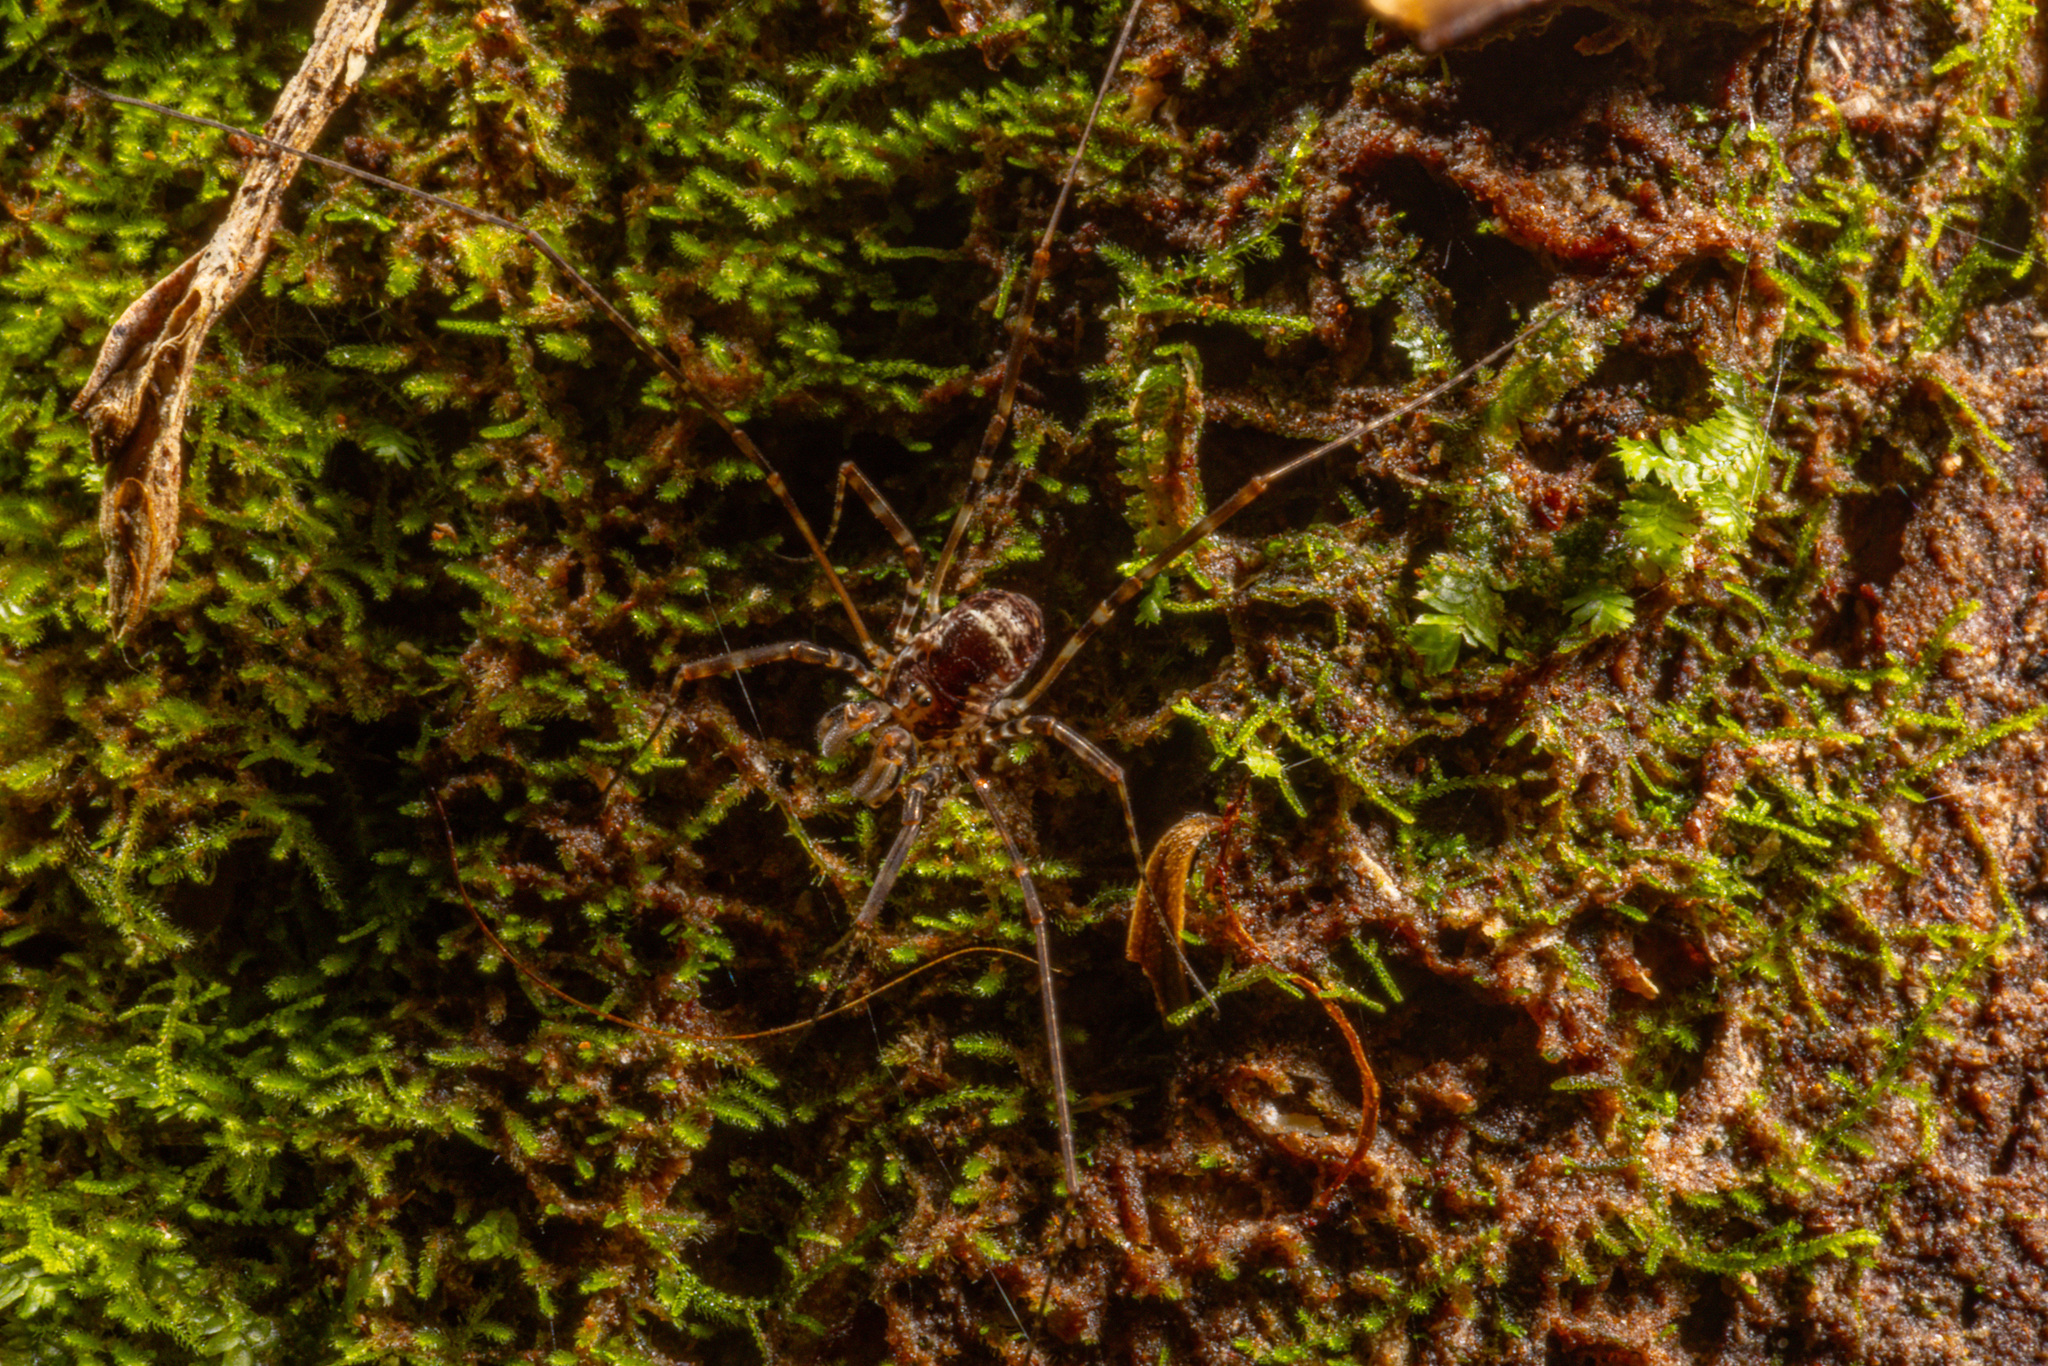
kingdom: Animalia
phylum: Arthropoda
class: Arachnida
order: Opiliones
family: Neopilionidae
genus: Megalopsalis
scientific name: Megalopsalis triascuta
